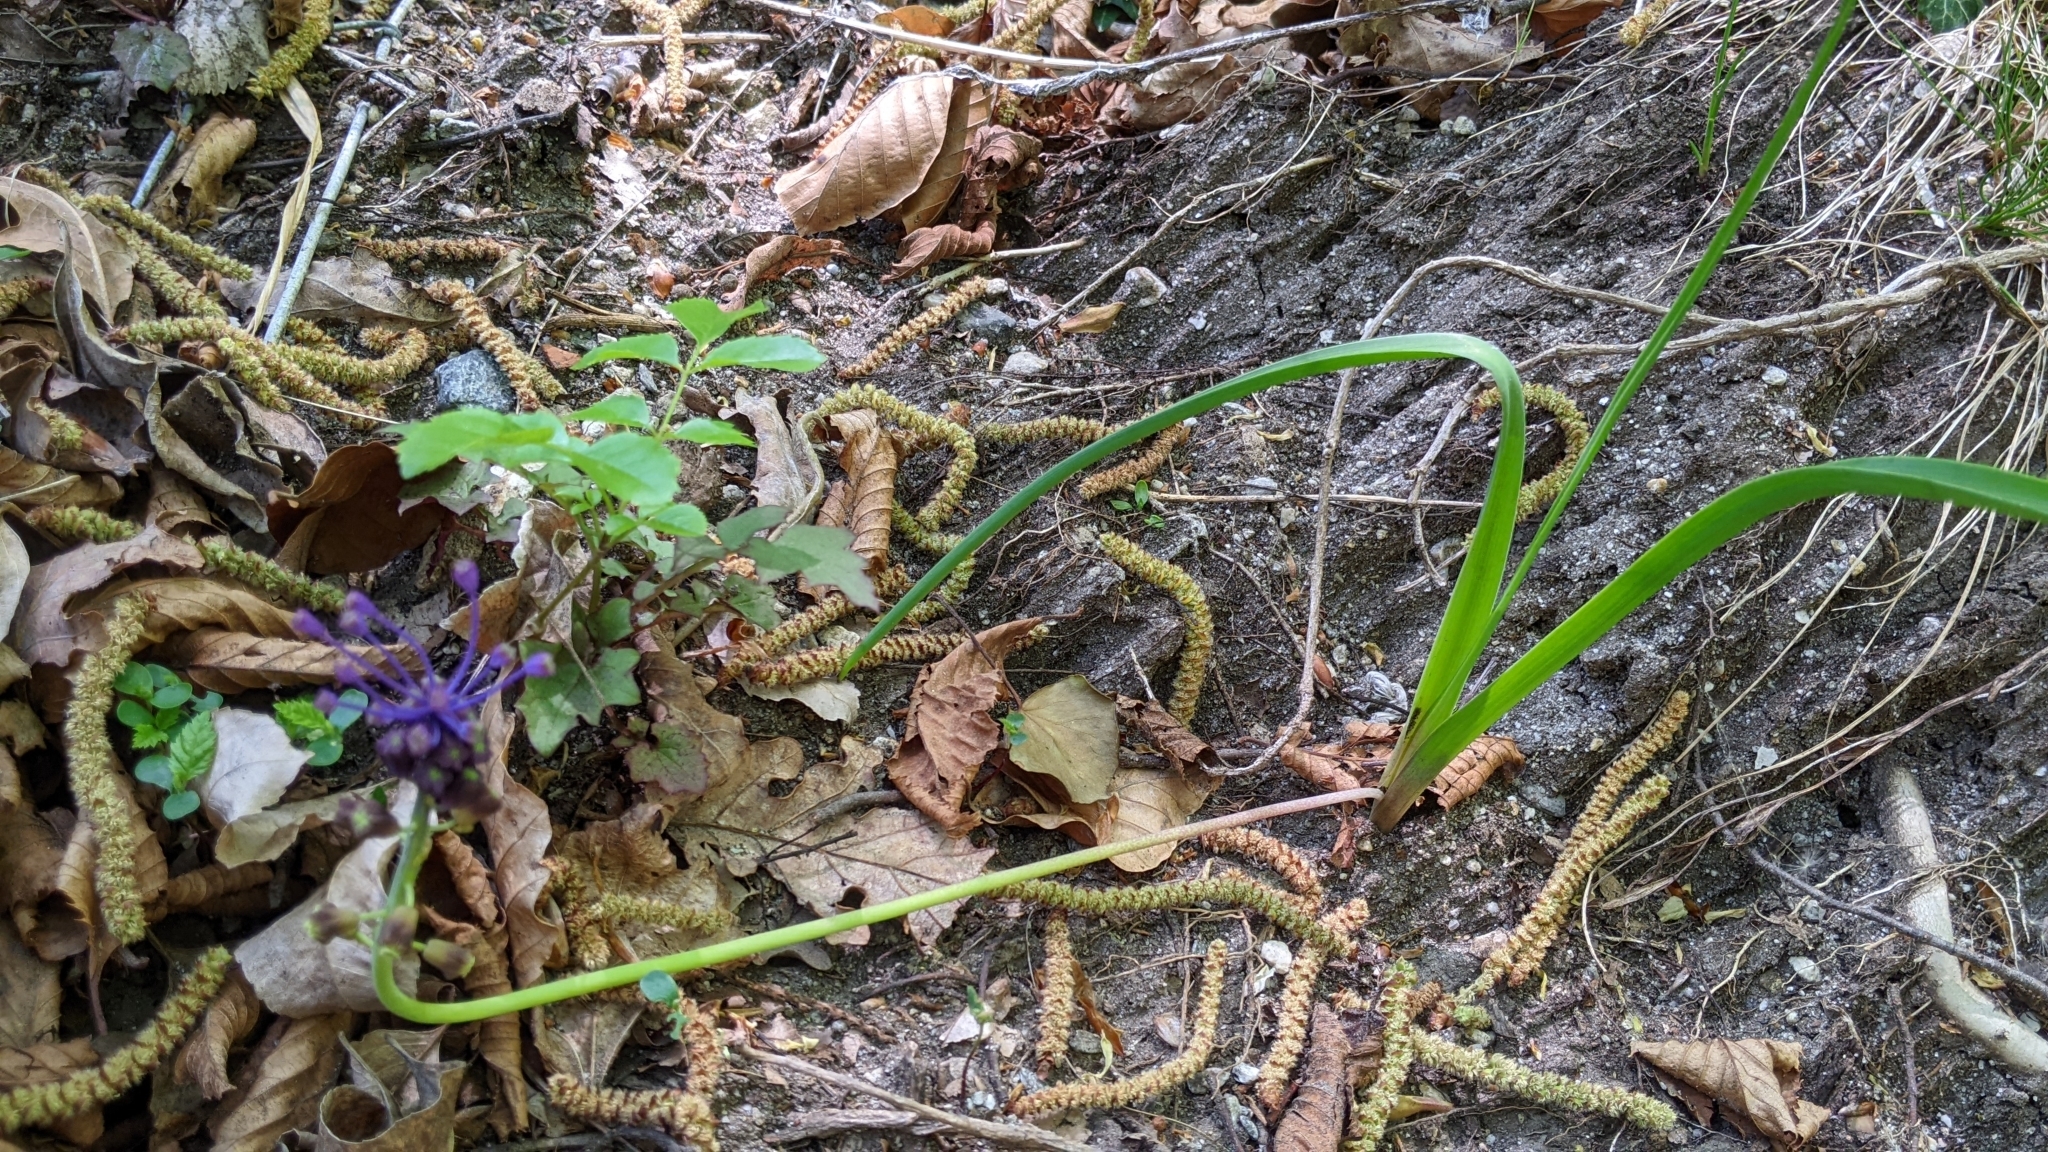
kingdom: Plantae
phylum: Tracheophyta
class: Liliopsida
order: Asparagales
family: Asparagaceae
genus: Muscari
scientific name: Muscari comosum
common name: Tassel hyacinth
